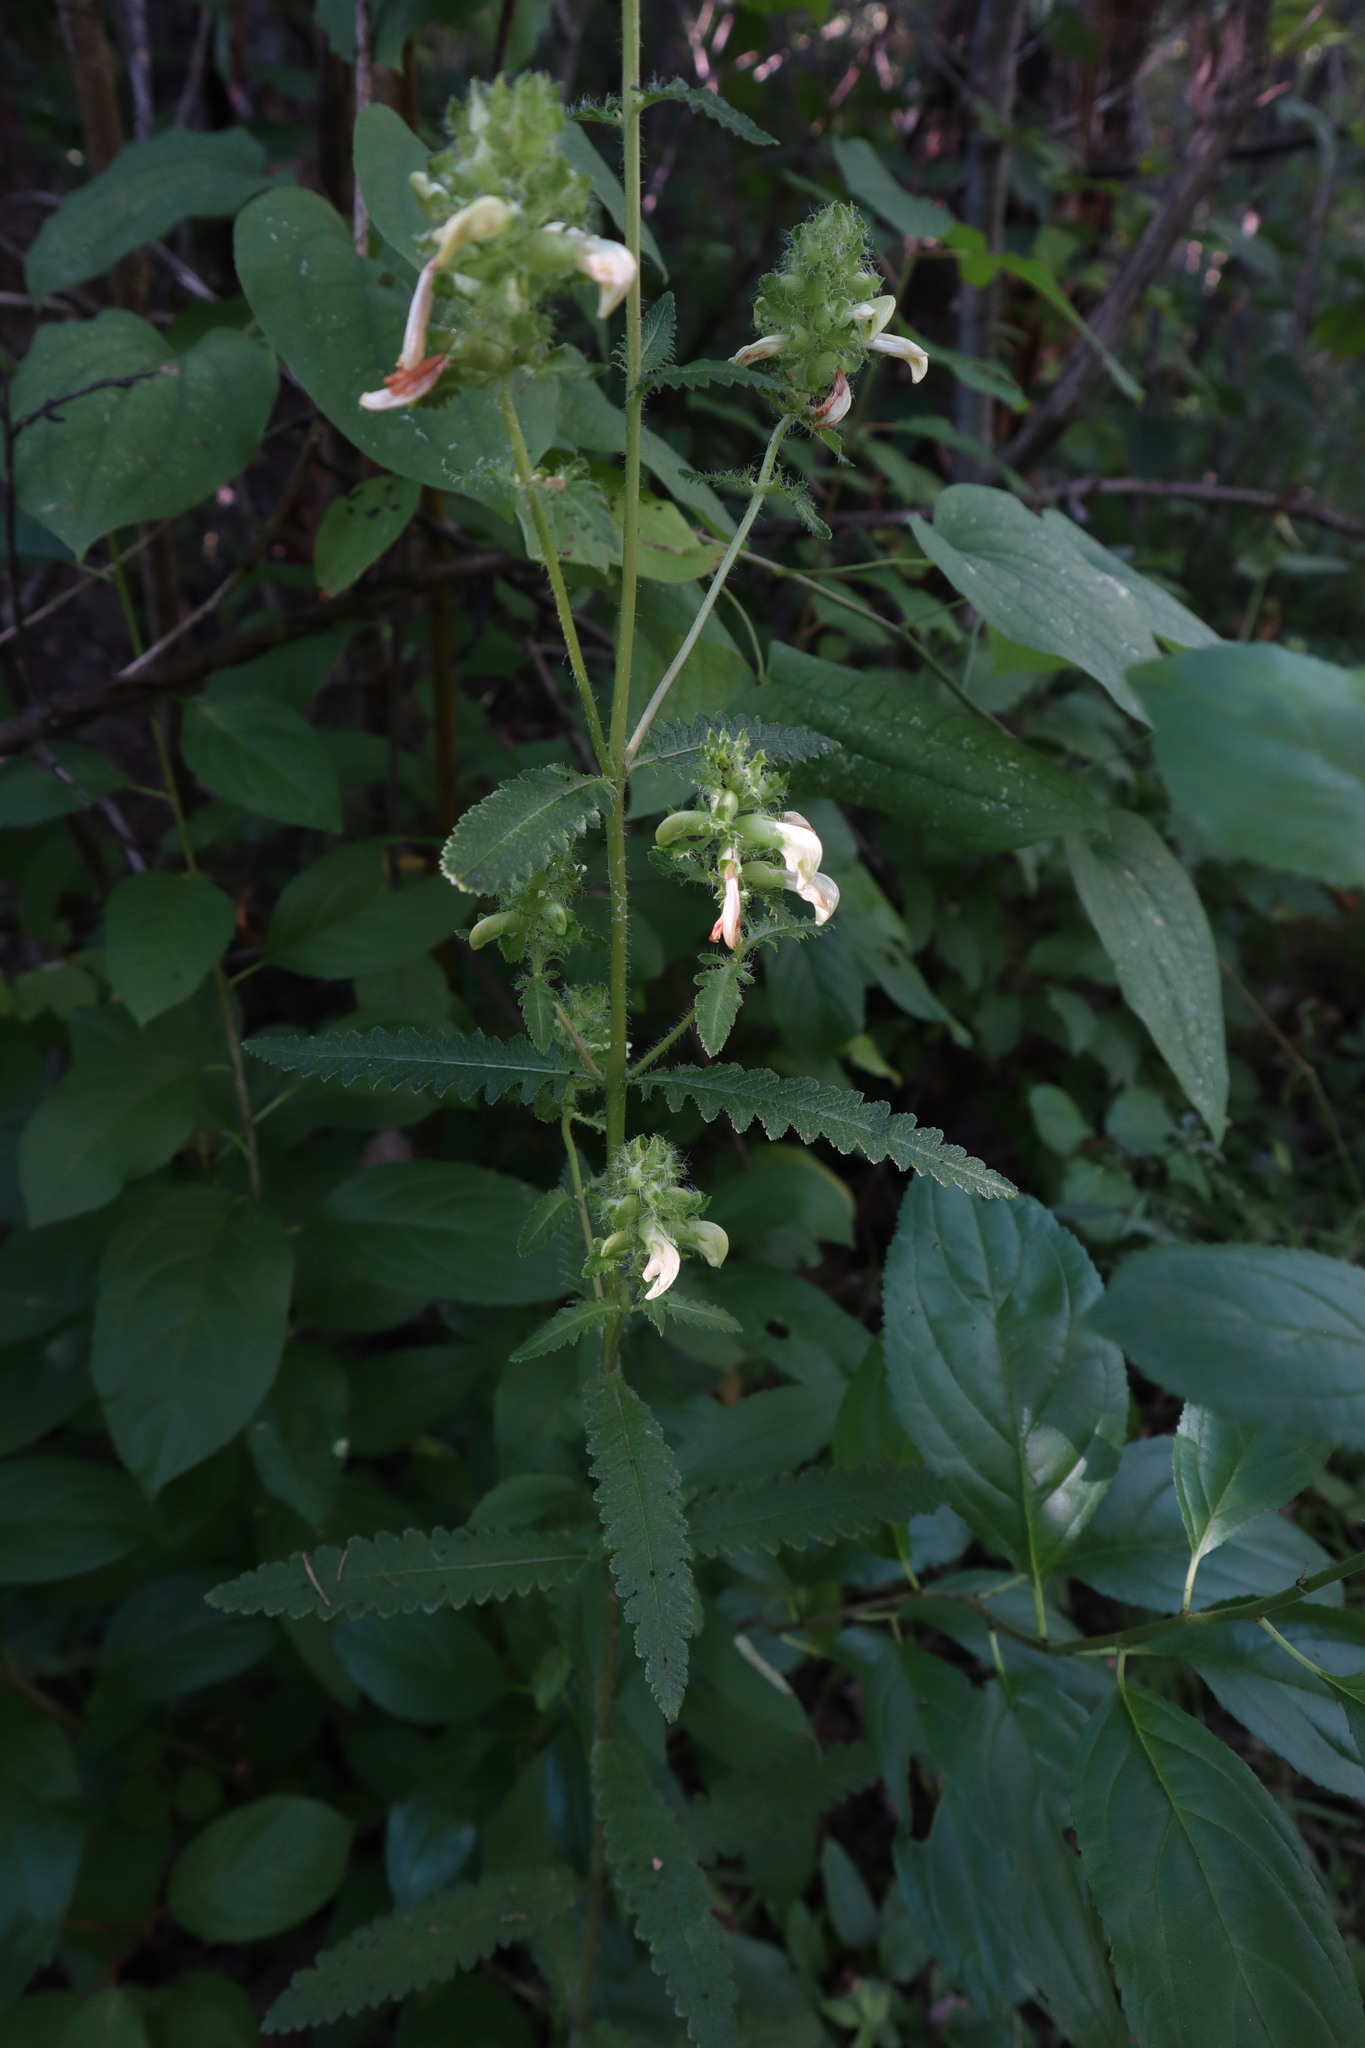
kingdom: Plantae
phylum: Tracheophyta
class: Magnoliopsida
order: Lamiales
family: Orobanchaceae
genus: Pedicularis
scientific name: Pedicularis lanceolata
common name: Swamp lousewort
